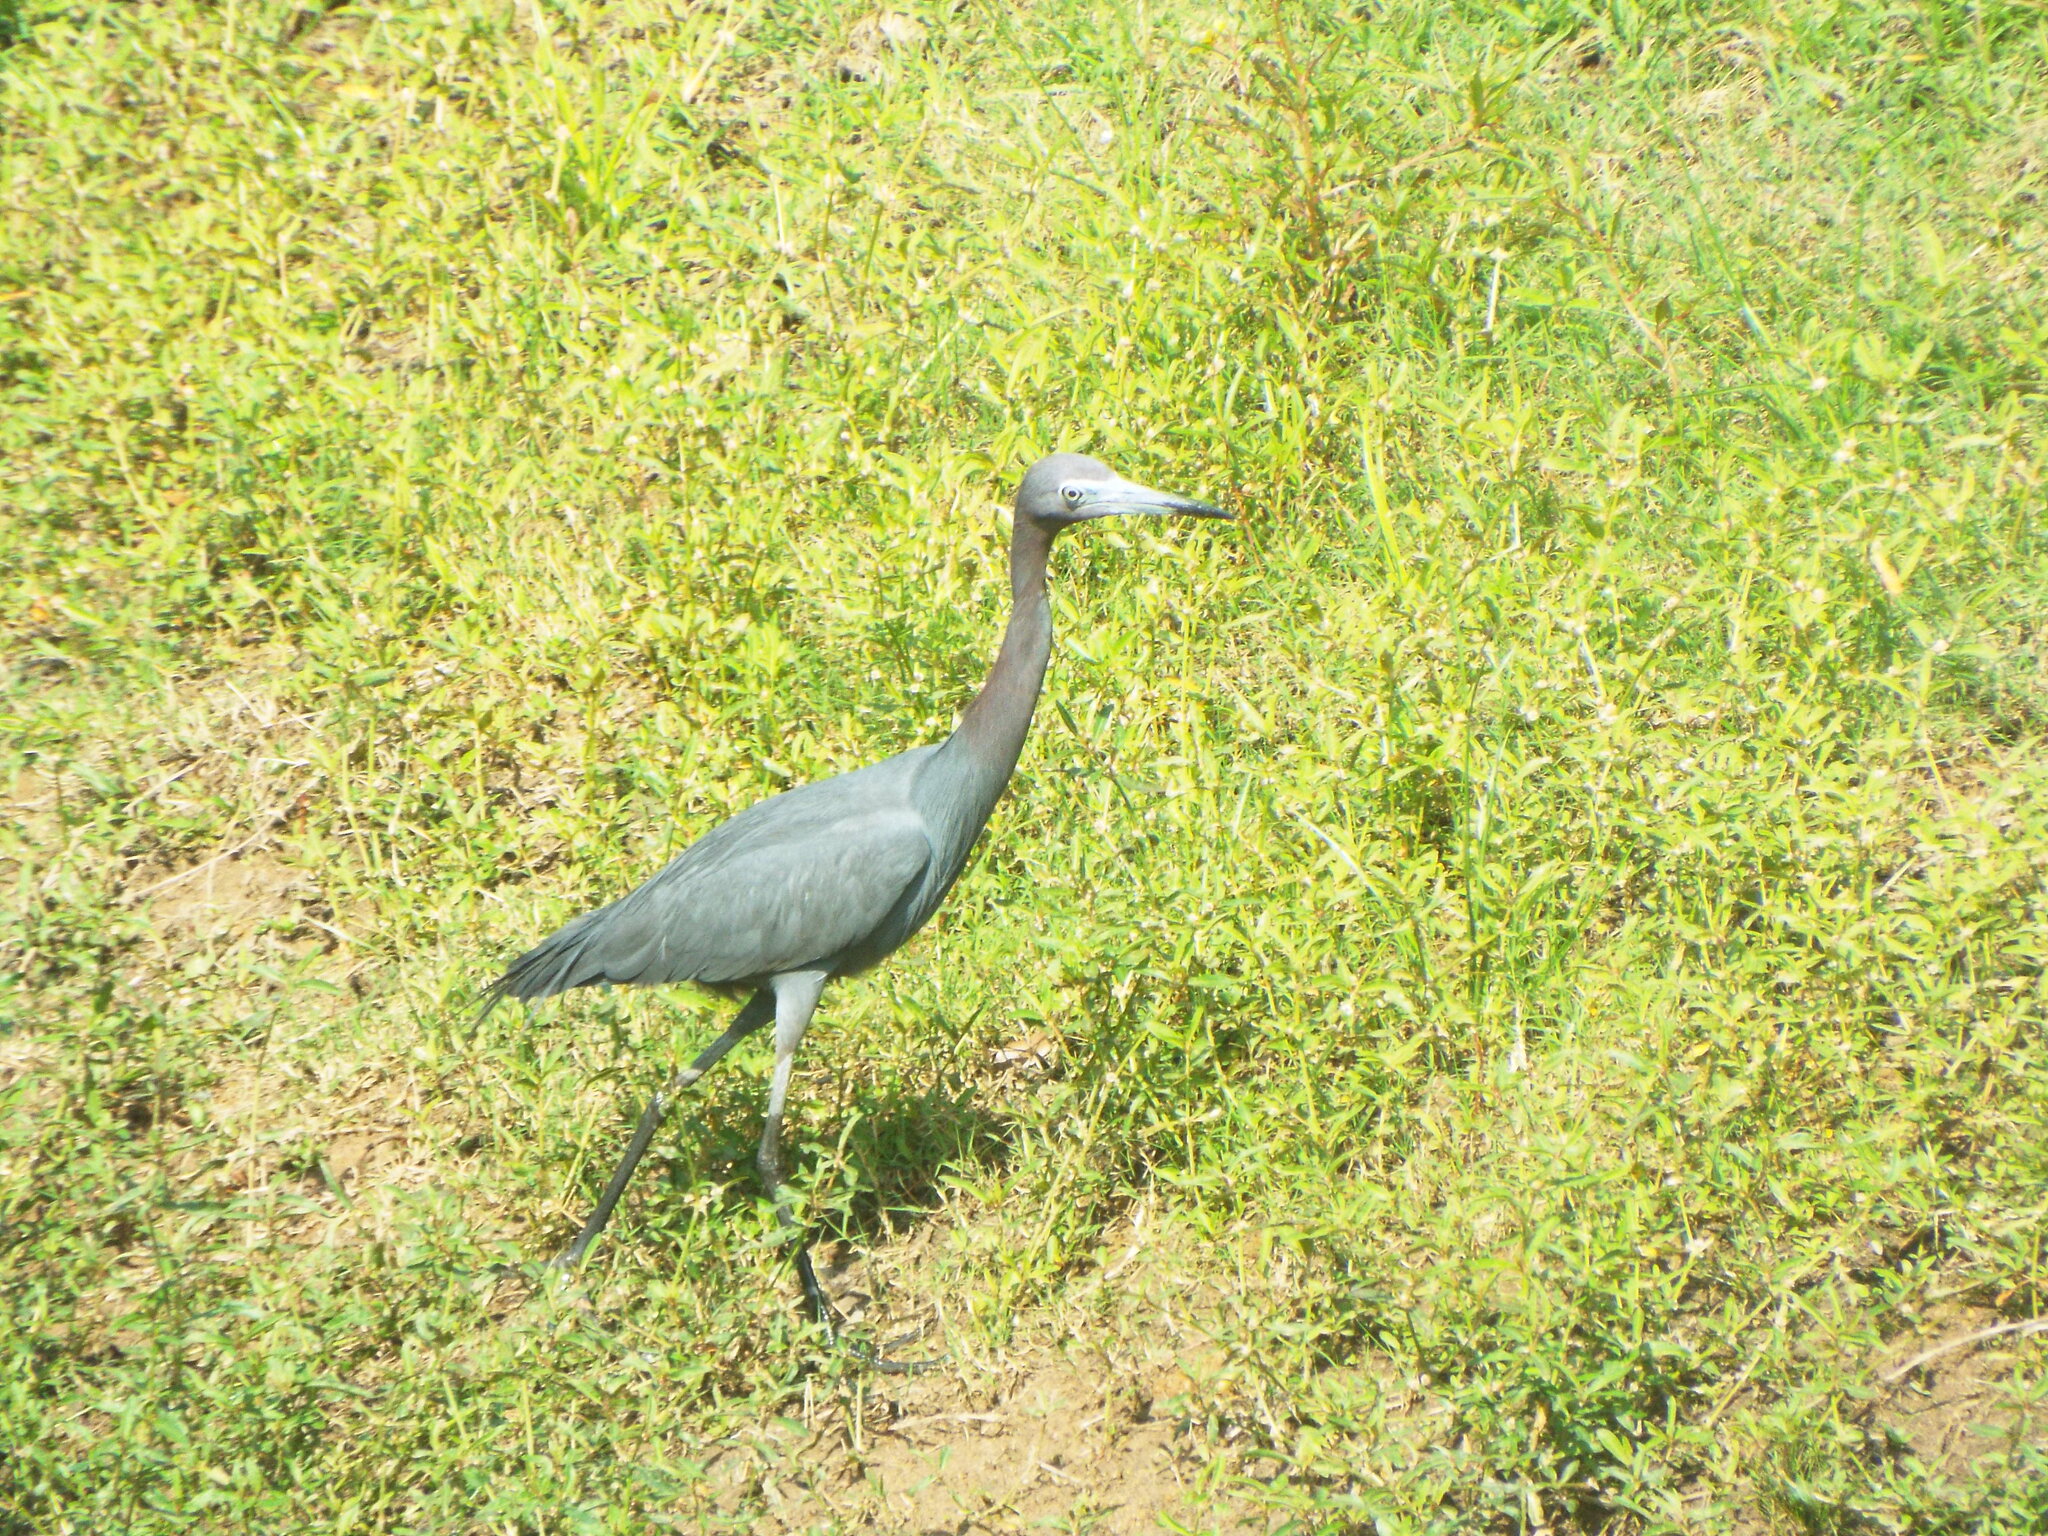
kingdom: Animalia
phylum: Chordata
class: Aves
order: Pelecaniformes
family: Ardeidae
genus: Egretta
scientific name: Egretta caerulea
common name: Little blue heron
